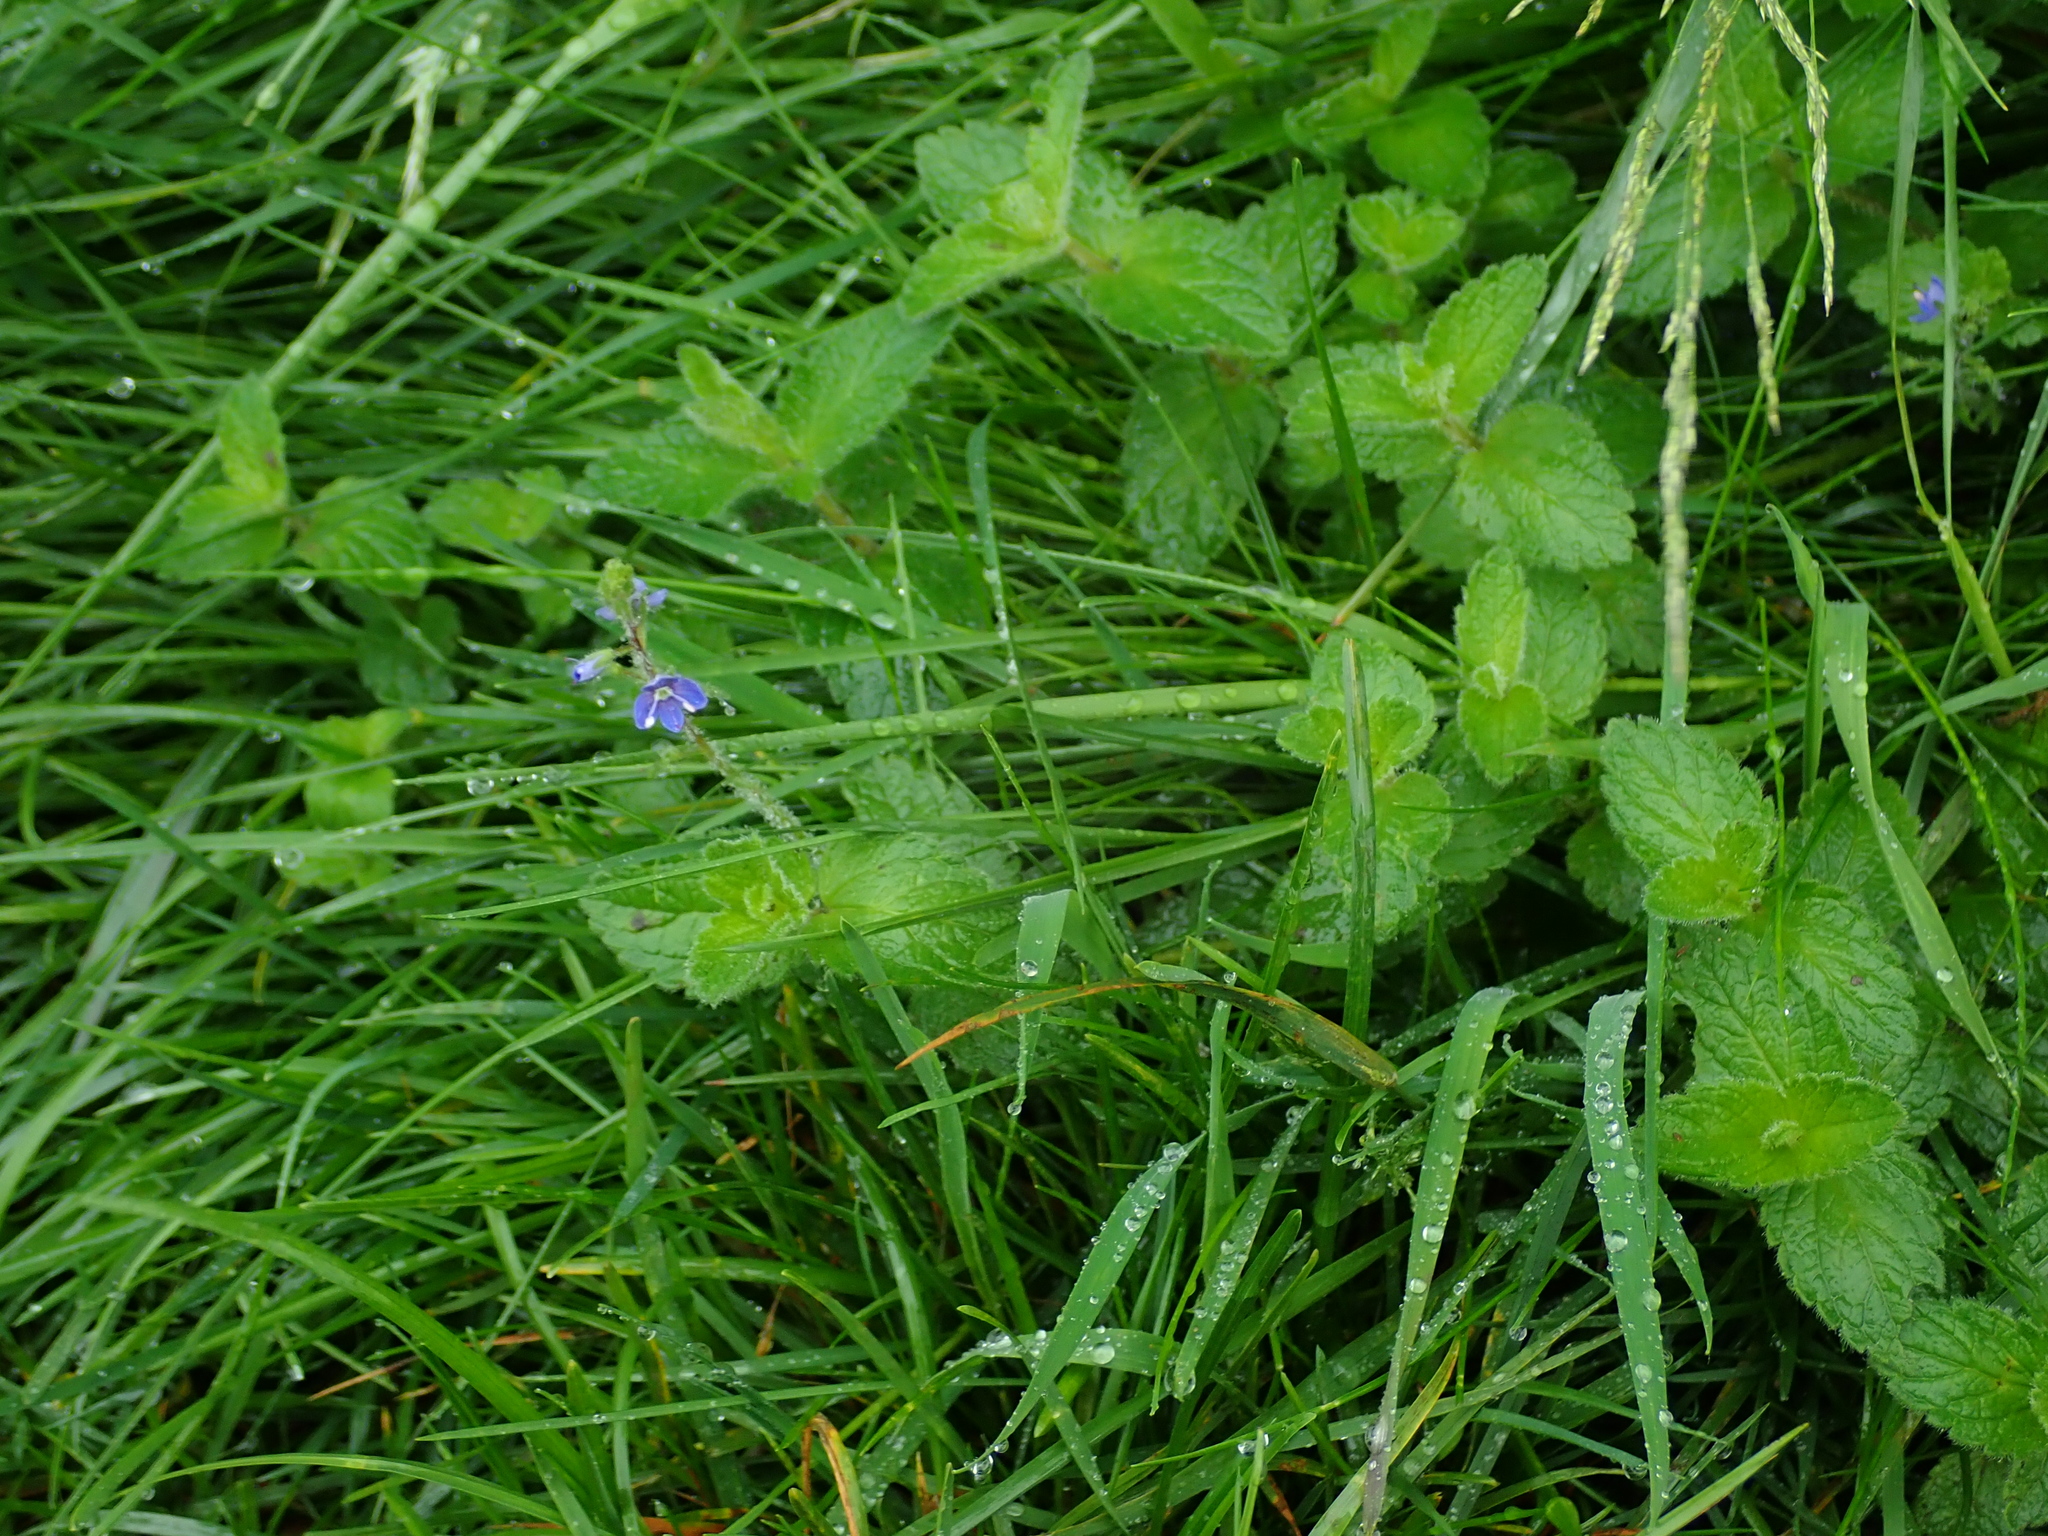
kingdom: Plantae
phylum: Tracheophyta
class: Magnoliopsida
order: Lamiales
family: Plantaginaceae
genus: Veronica
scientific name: Veronica chamaedrys
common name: Germander speedwell
